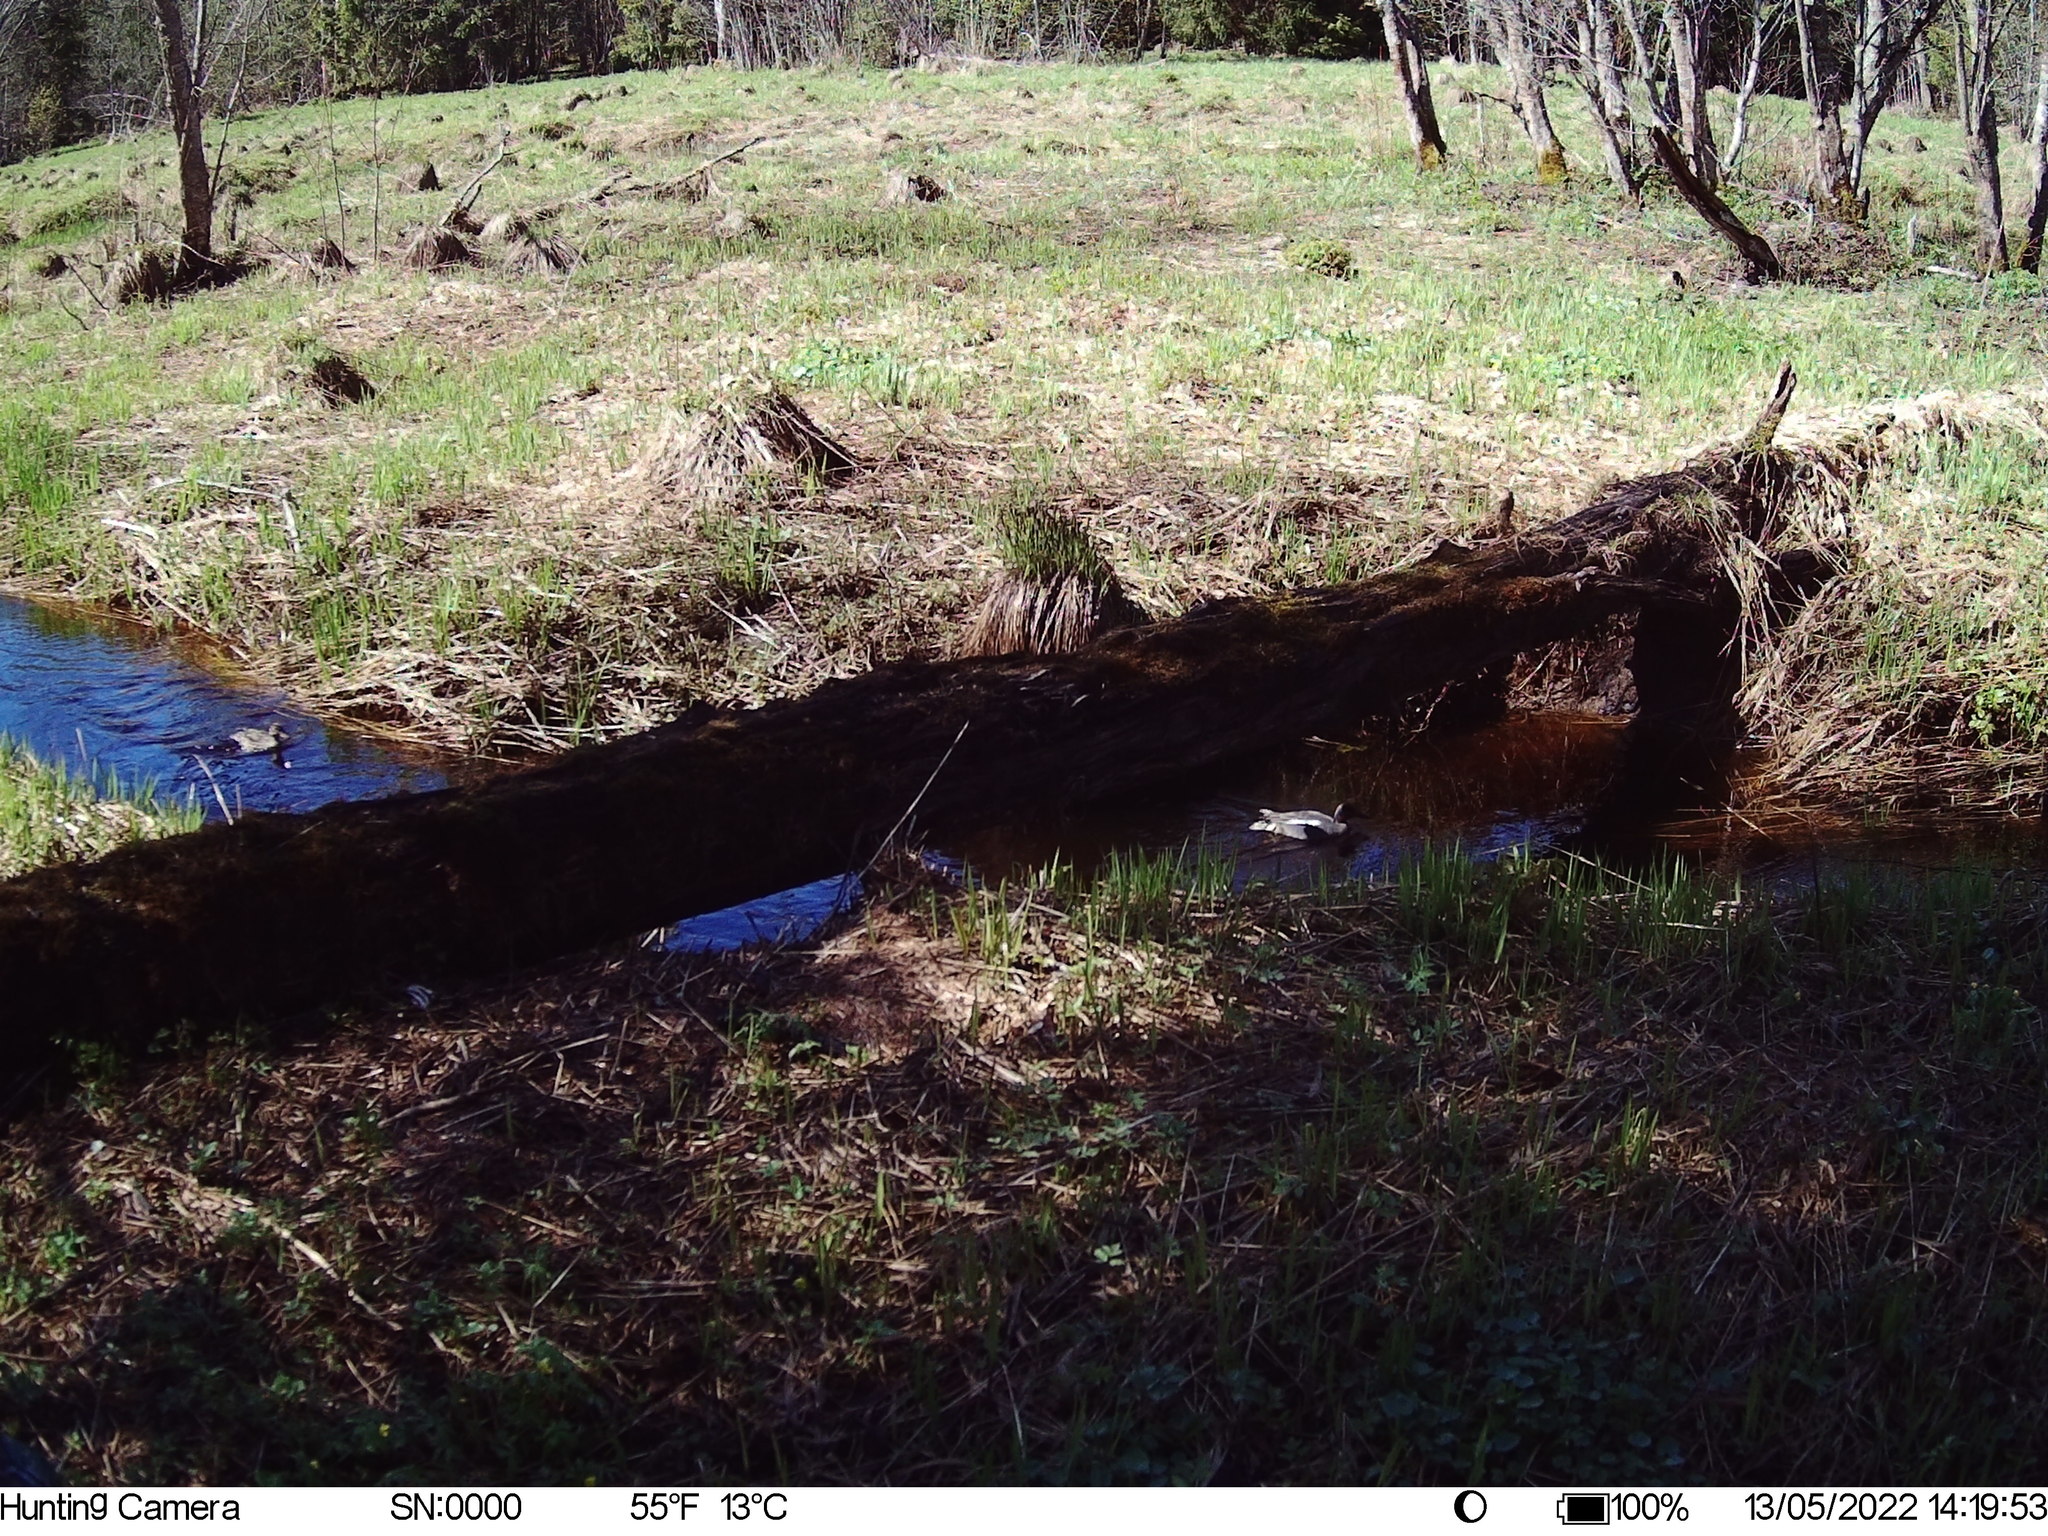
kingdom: Animalia
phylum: Chordata
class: Aves
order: Anseriformes
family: Anatidae
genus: Anas
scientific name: Anas crecca
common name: Eurasian teal
